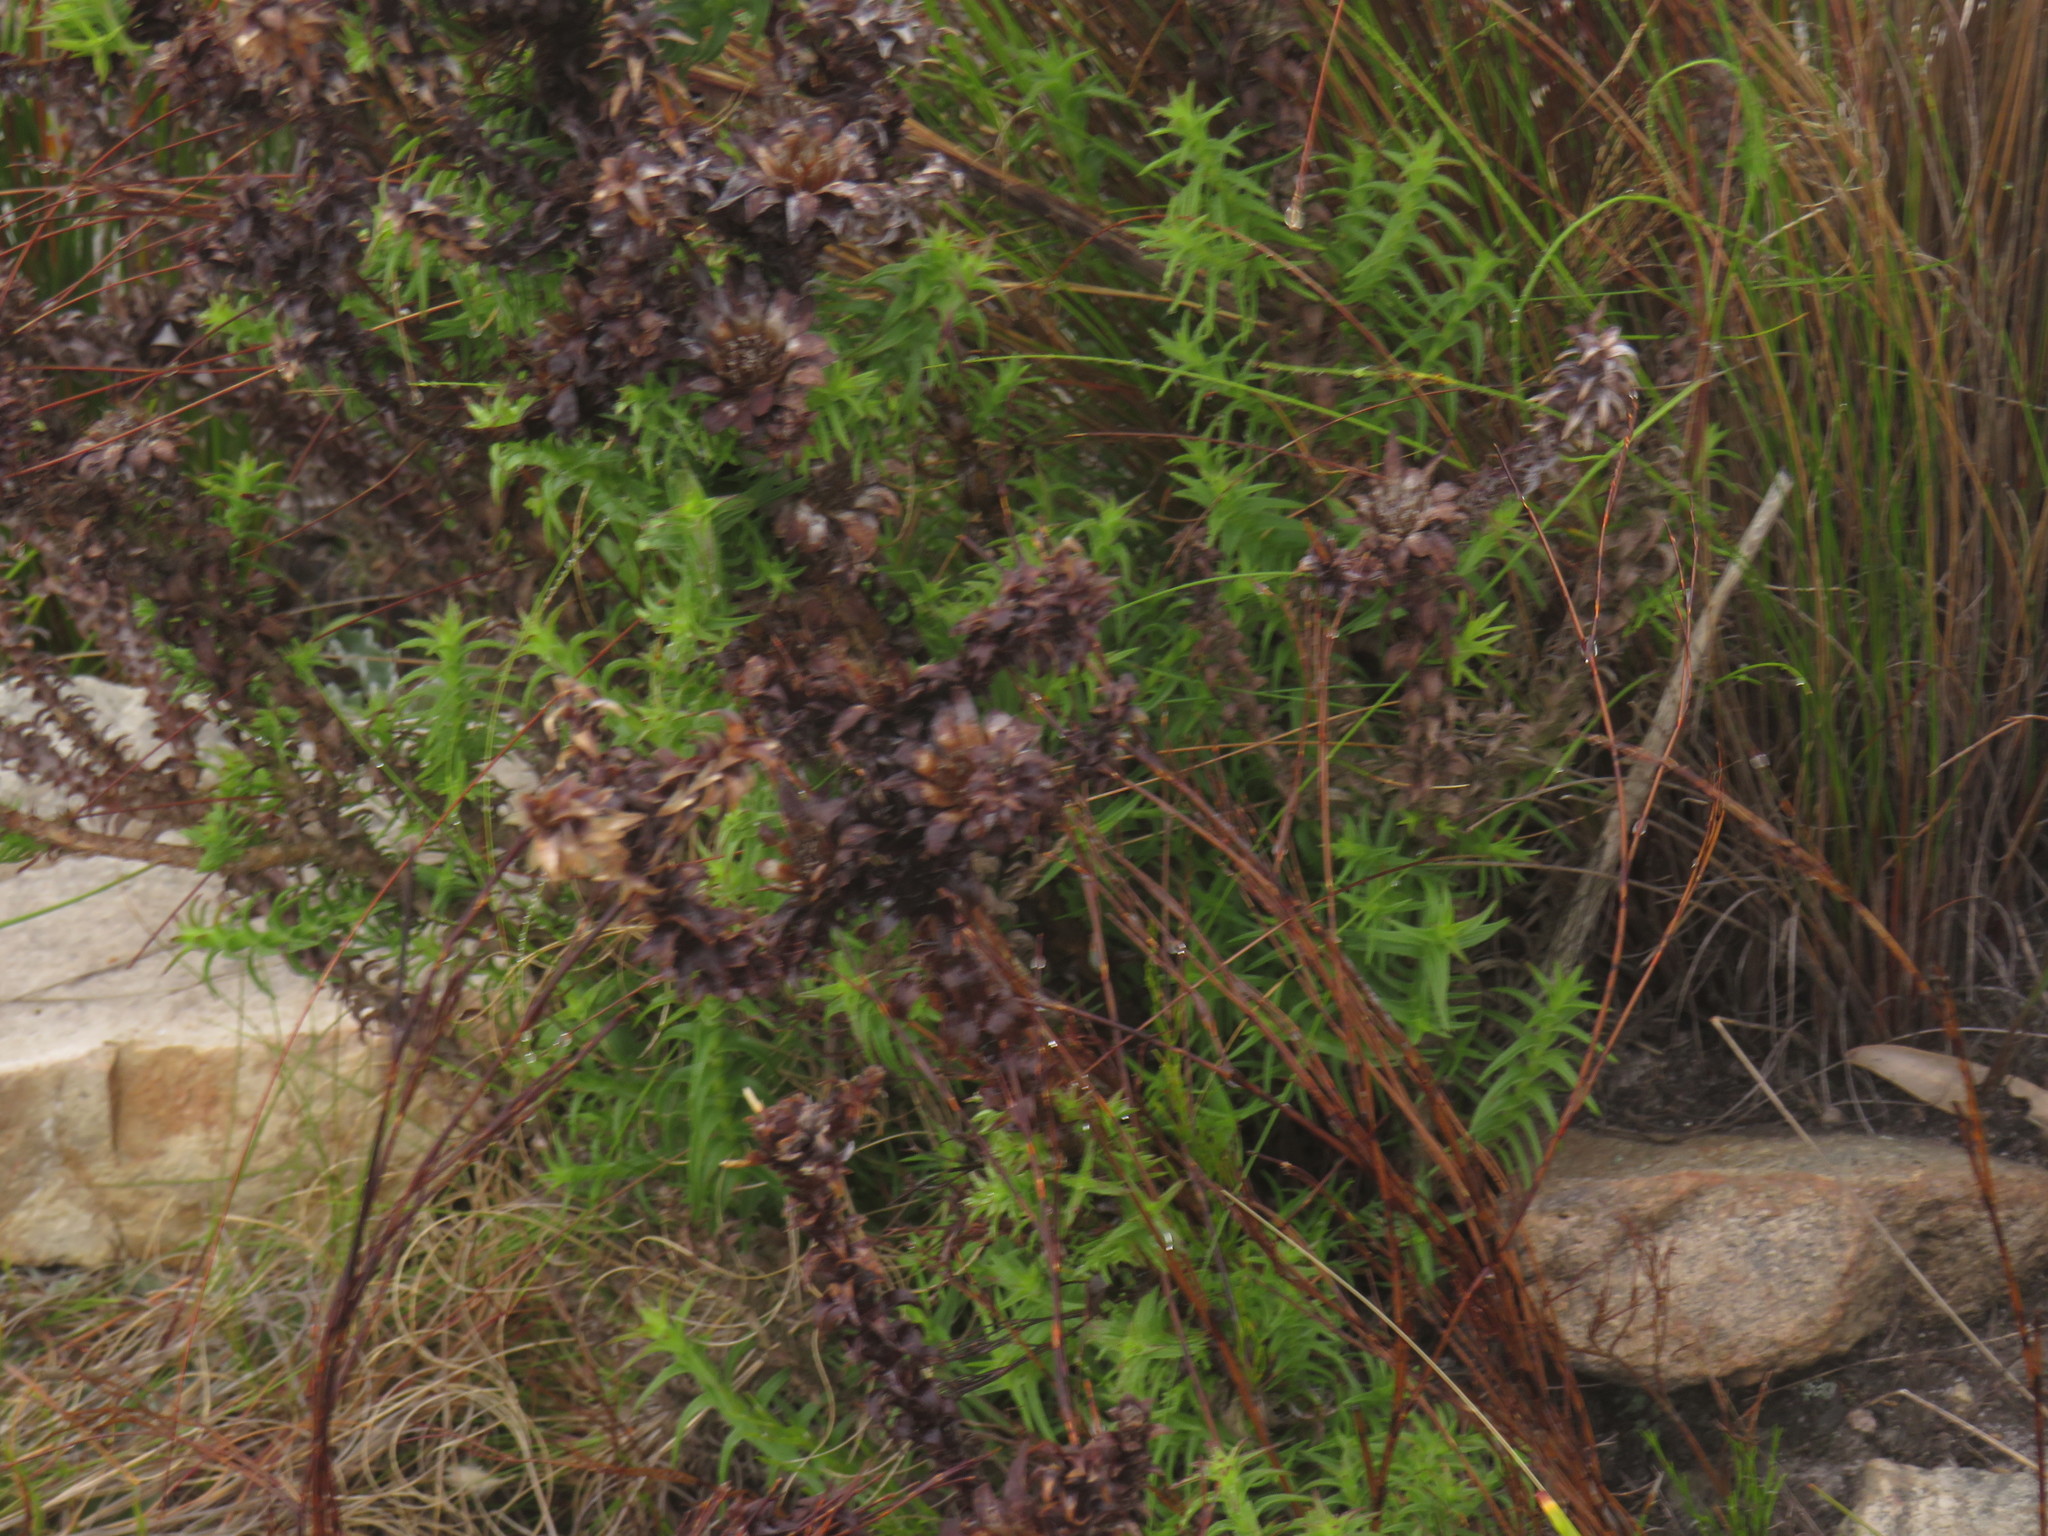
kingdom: Plantae
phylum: Tracheophyta
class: Magnoliopsida
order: Asterales
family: Asteraceae
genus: Oedera
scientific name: Oedera imbricata
